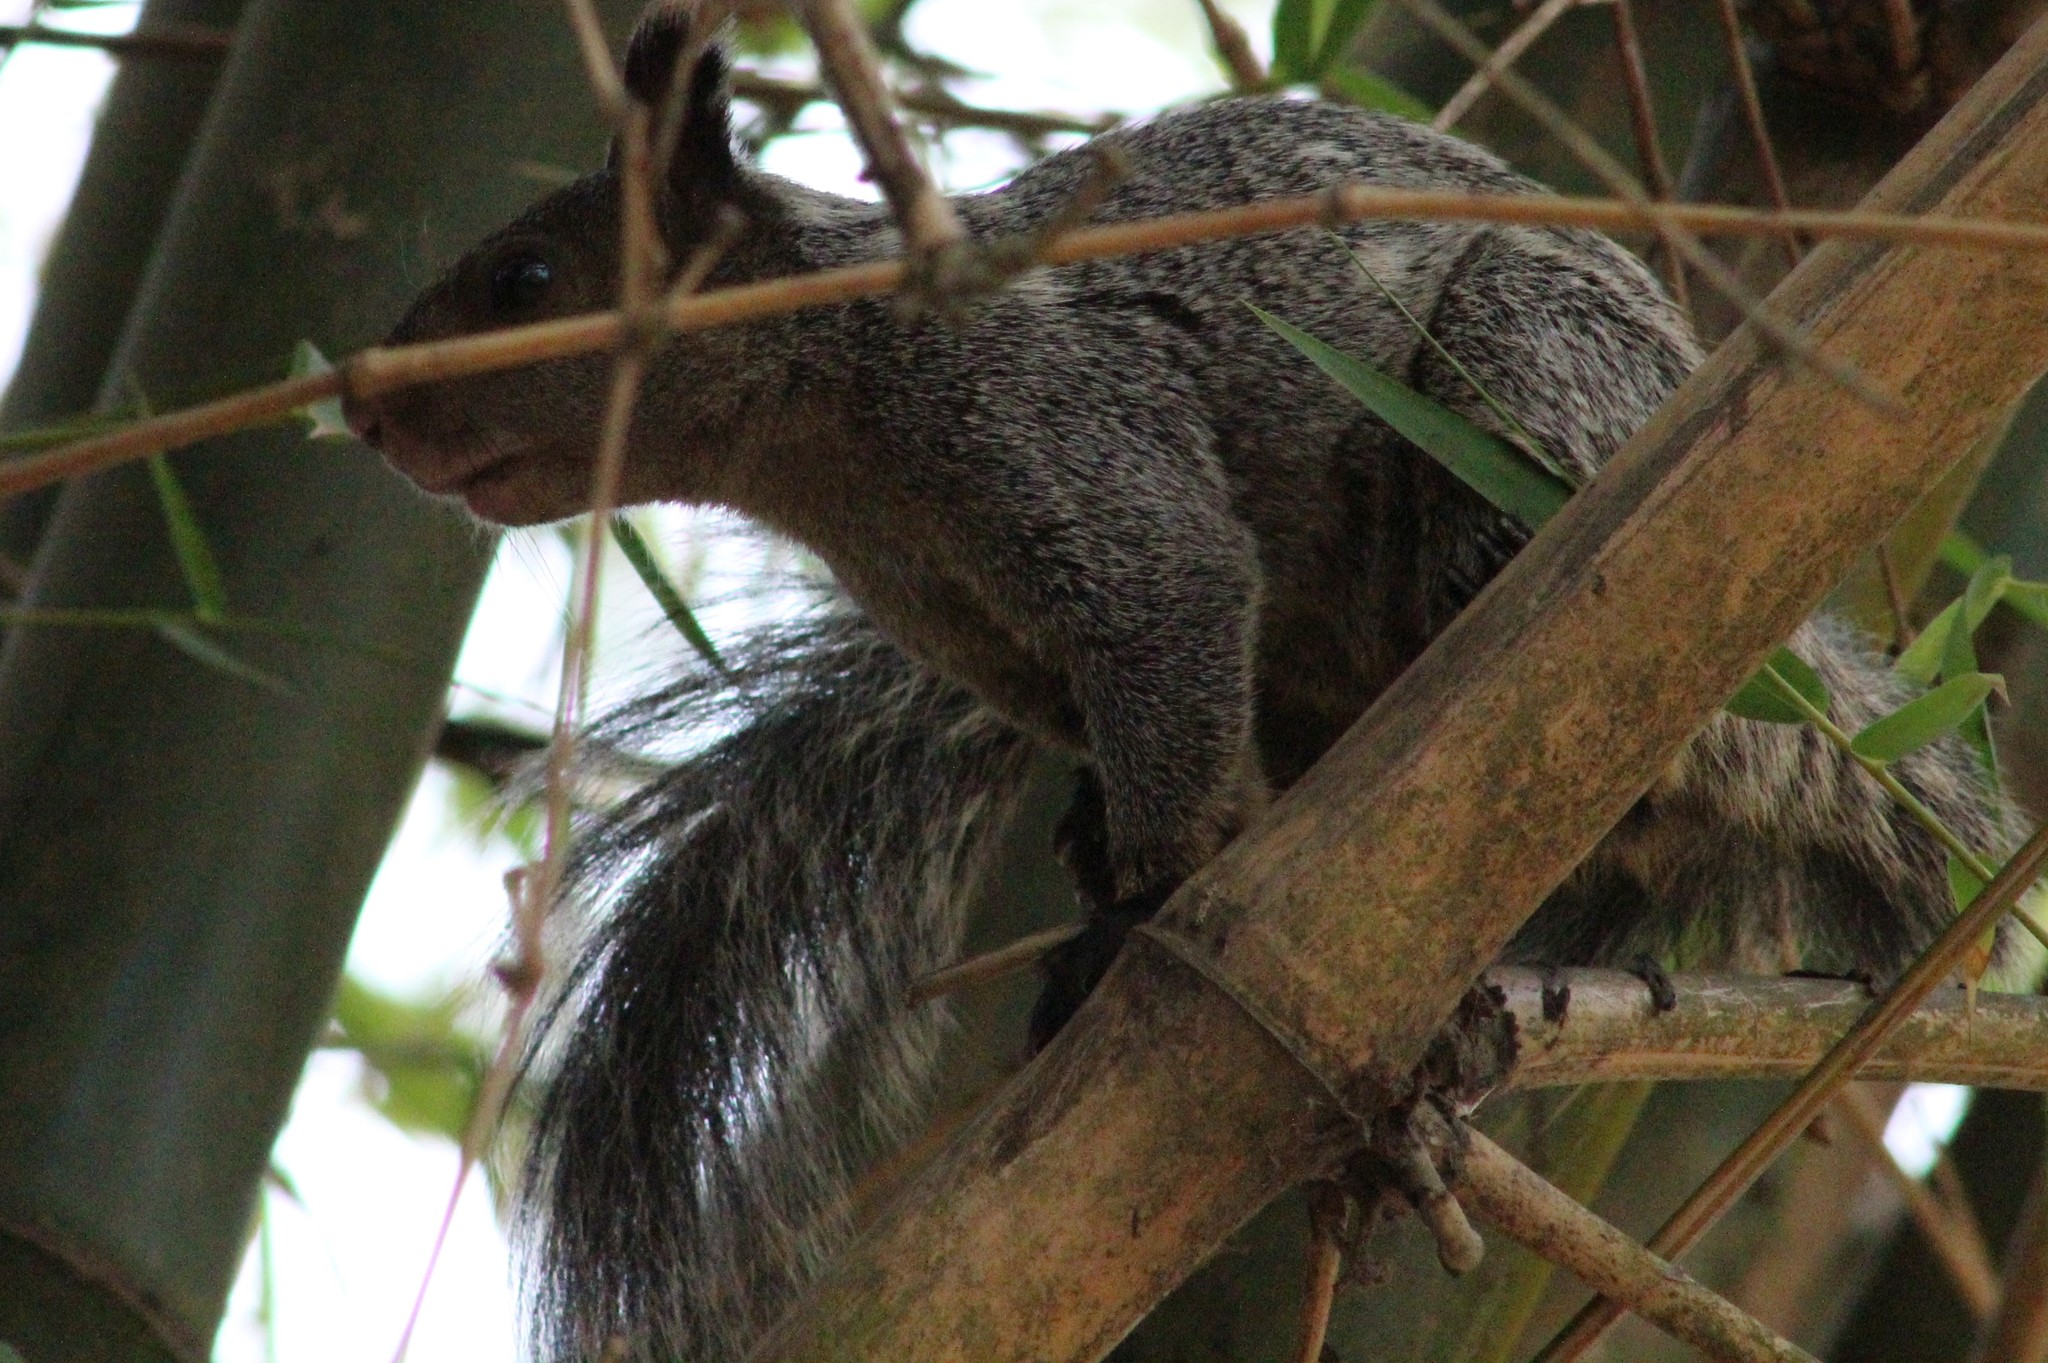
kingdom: Animalia
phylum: Chordata
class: Mammalia
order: Rodentia
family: Sciuridae
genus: Sciurus
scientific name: Sciurus stramineus
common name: Guayaquil squirrel
